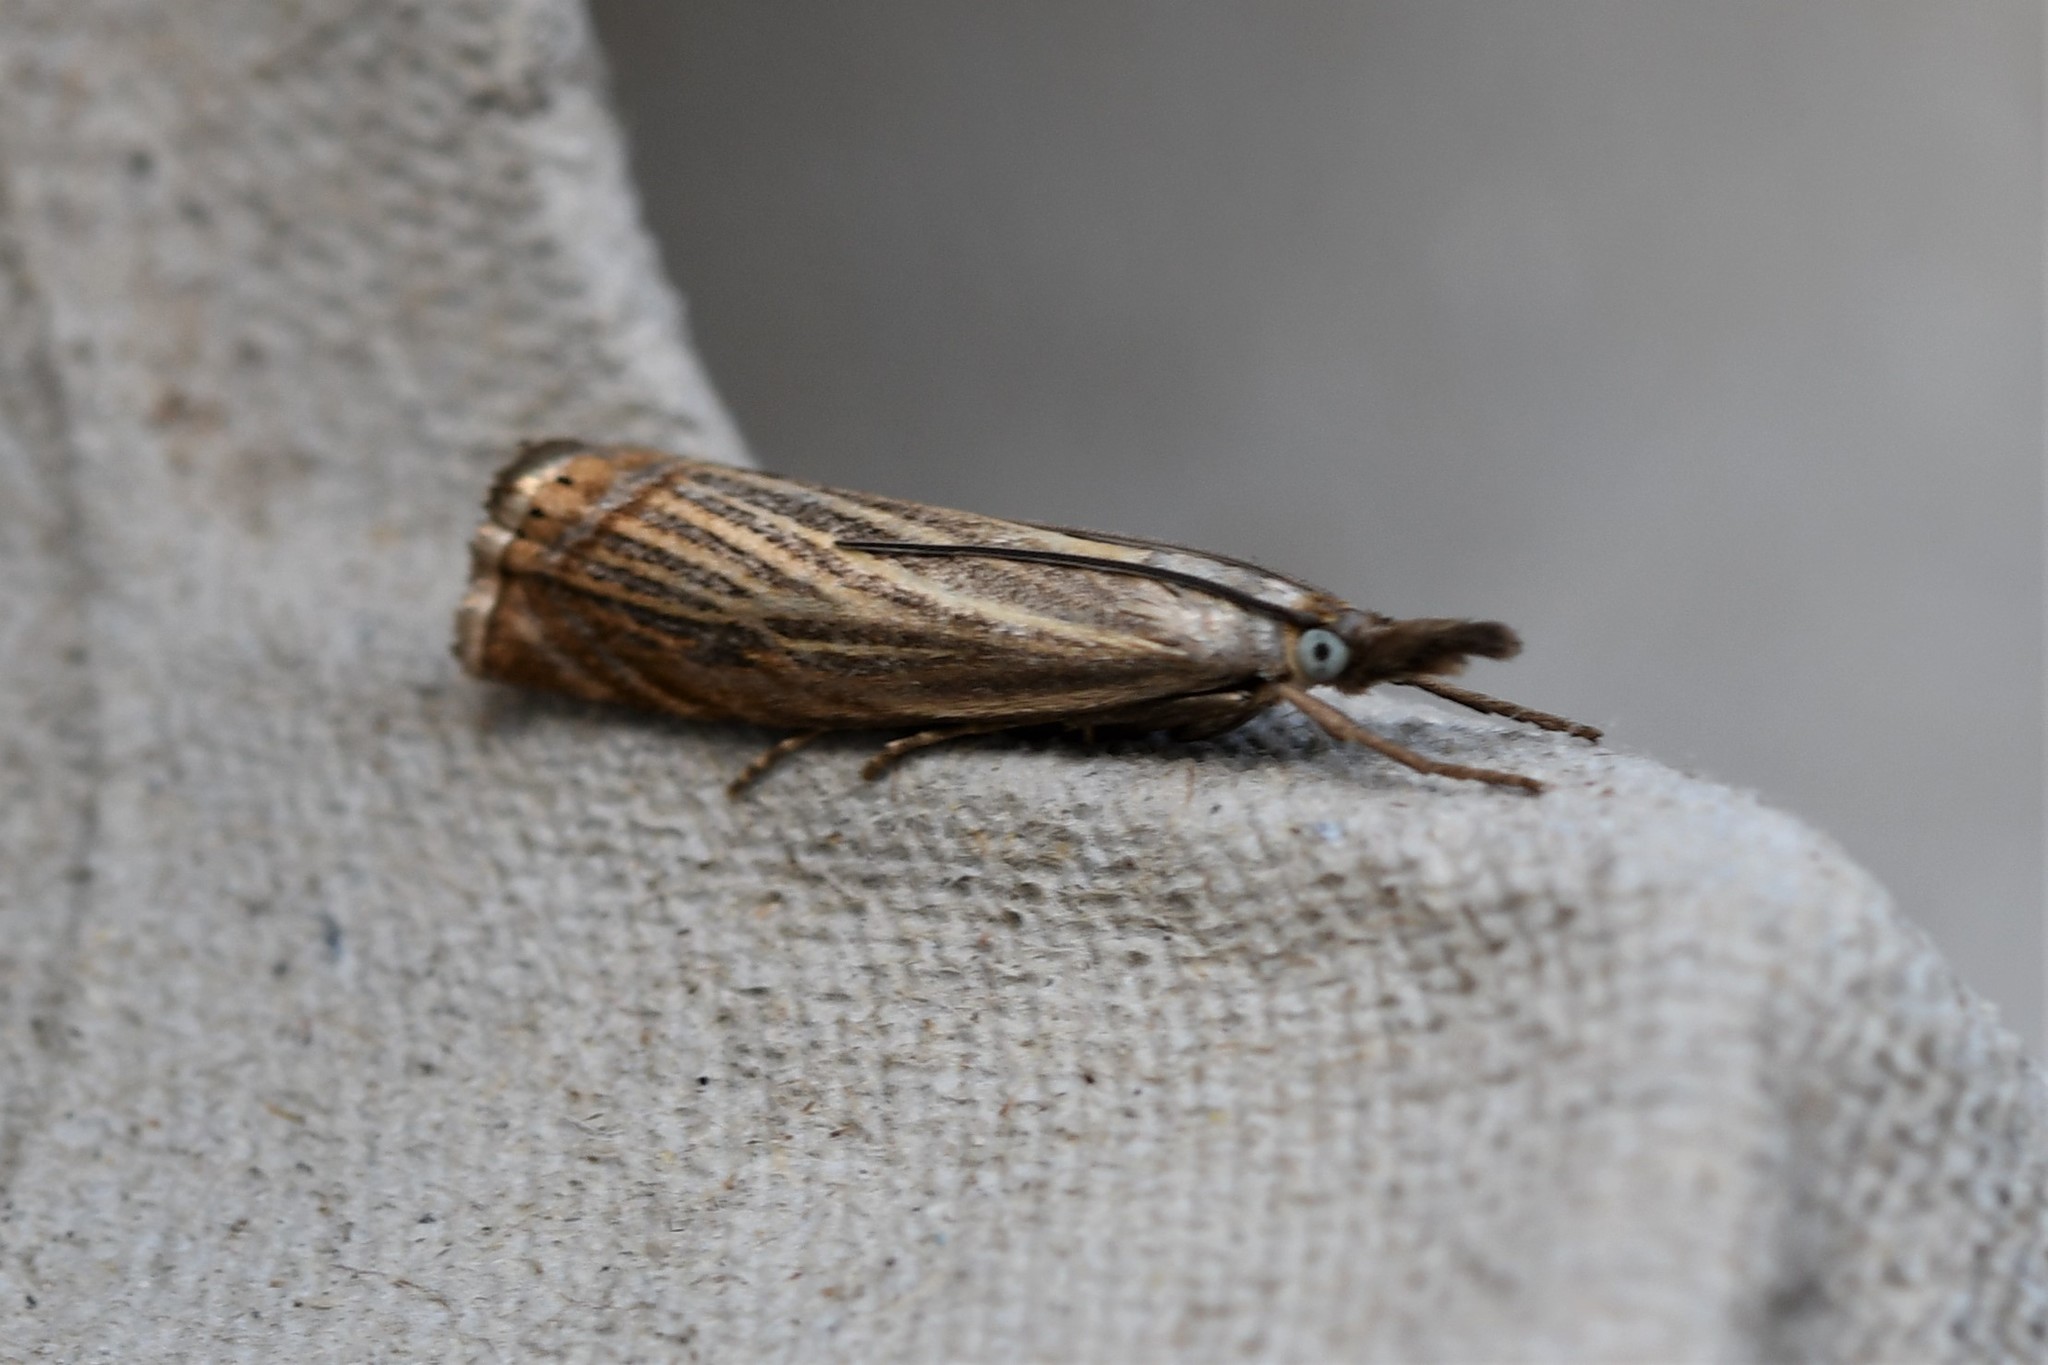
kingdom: Animalia
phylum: Arthropoda
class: Insecta
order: Lepidoptera
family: Crambidae
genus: Chrysoteuchia
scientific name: Chrysoteuchia culmella
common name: Garden grass-veneer
